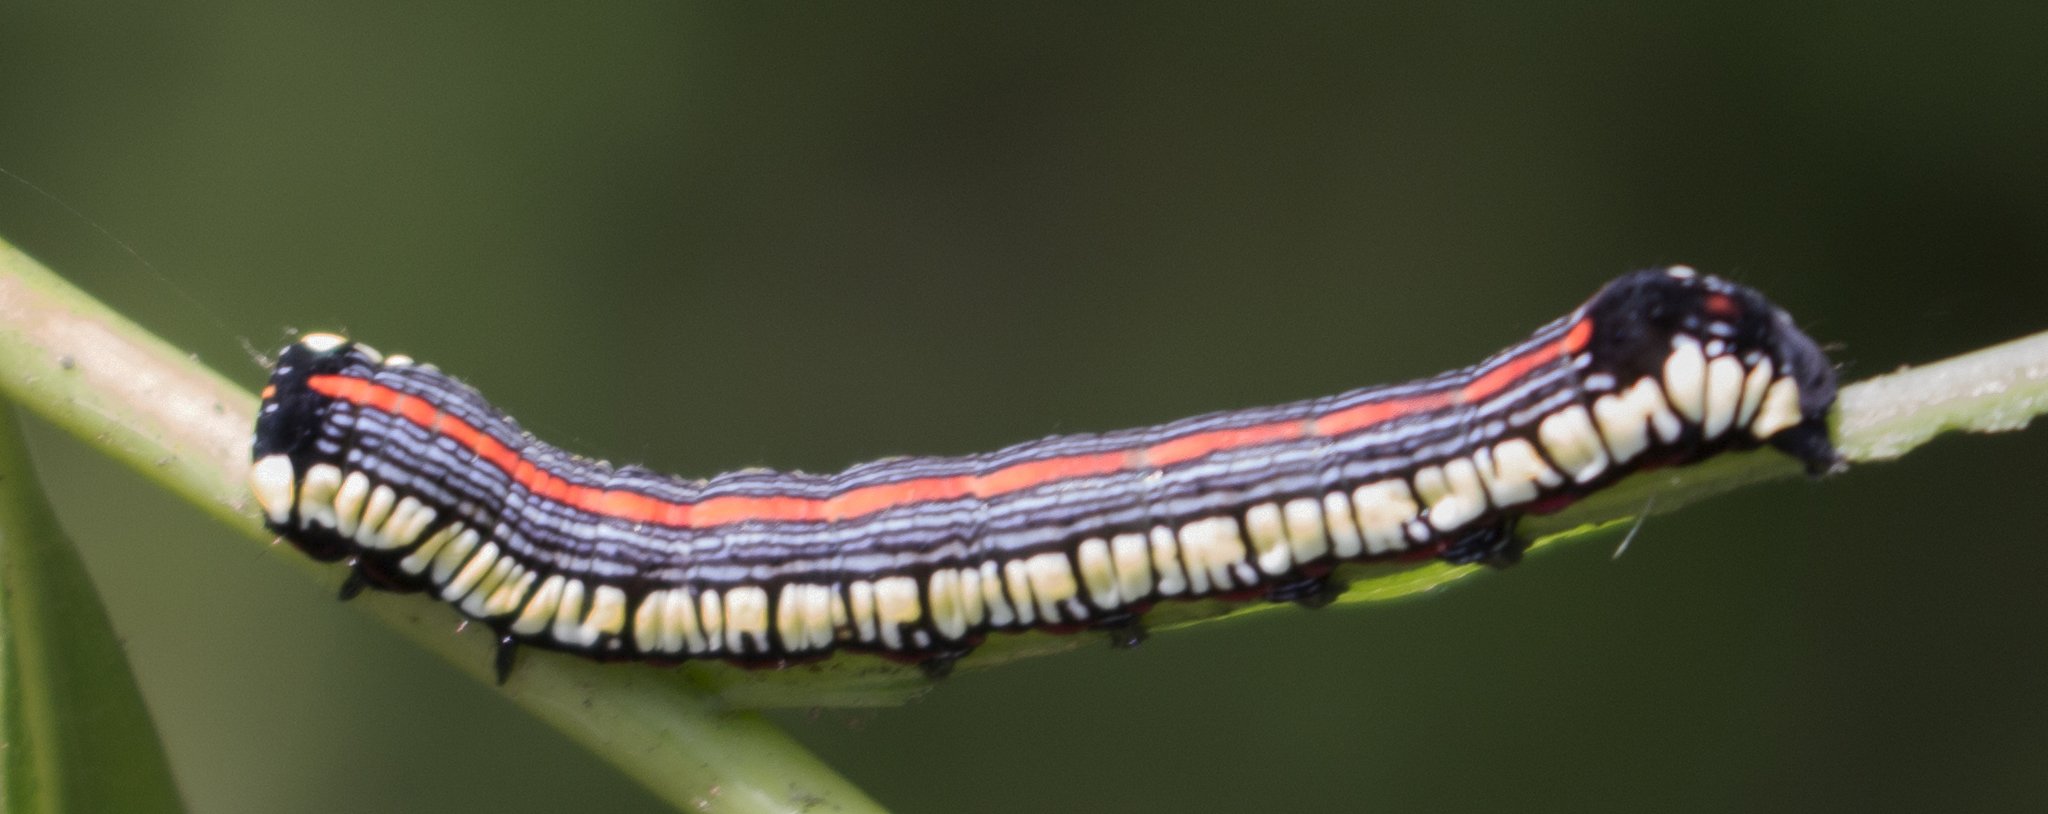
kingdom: Animalia
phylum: Arthropoda
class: Insecta
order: Lepidoptera
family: Noctuidae
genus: Cucullia
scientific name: Cucullia convexipennis
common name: Brown-hooded owlet
